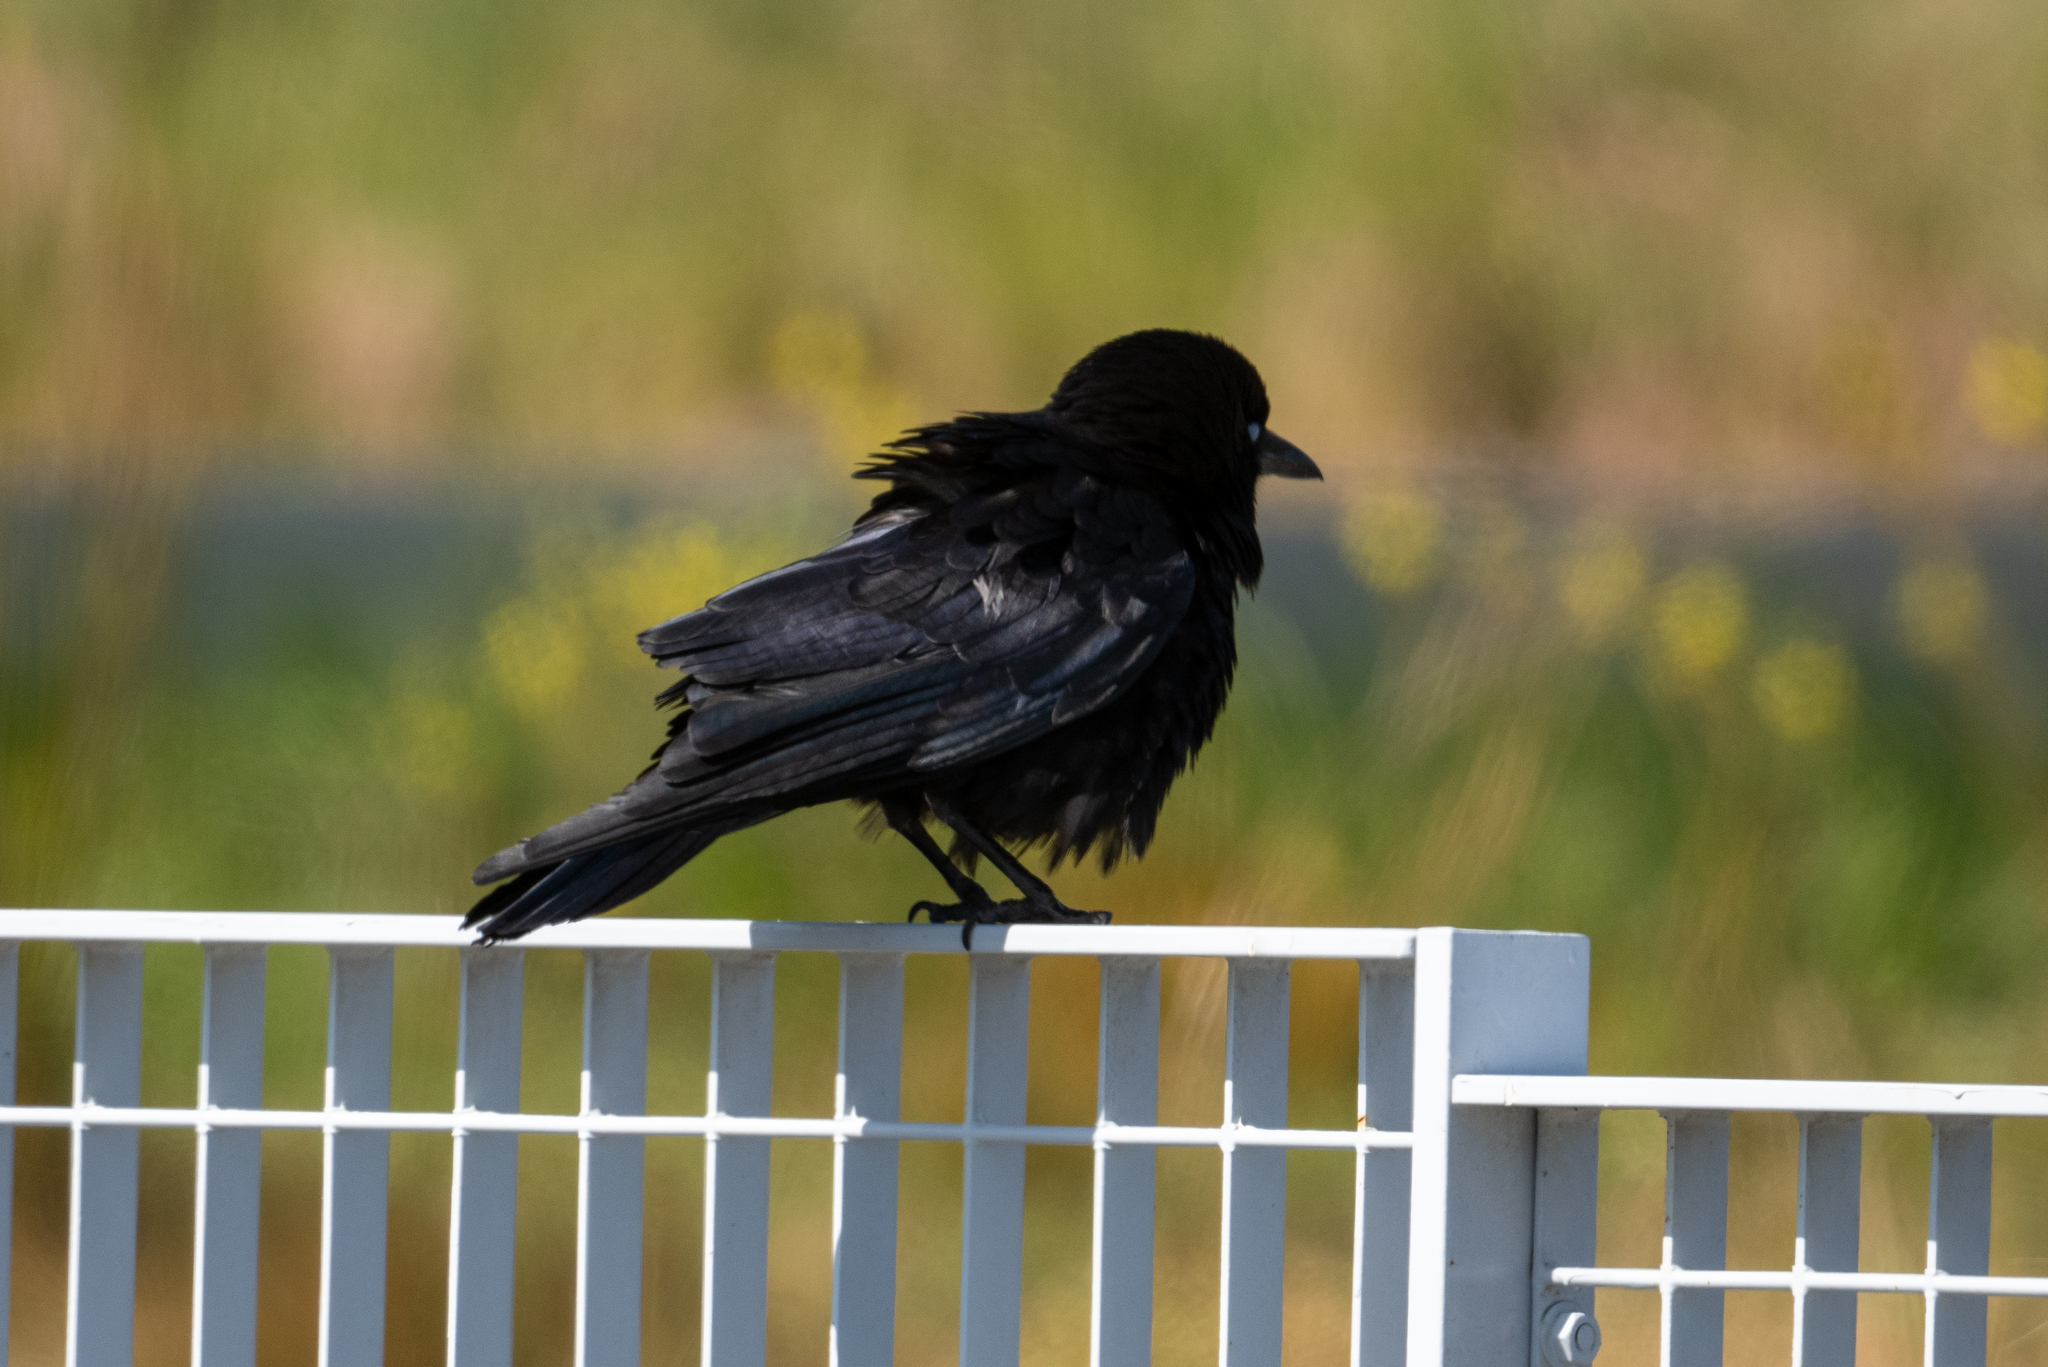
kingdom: Animalia
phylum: Chordata
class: Aves
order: Passeriformes
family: Corvidae
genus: Corvus
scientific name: Corvus brachyrhynchos
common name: American crow
